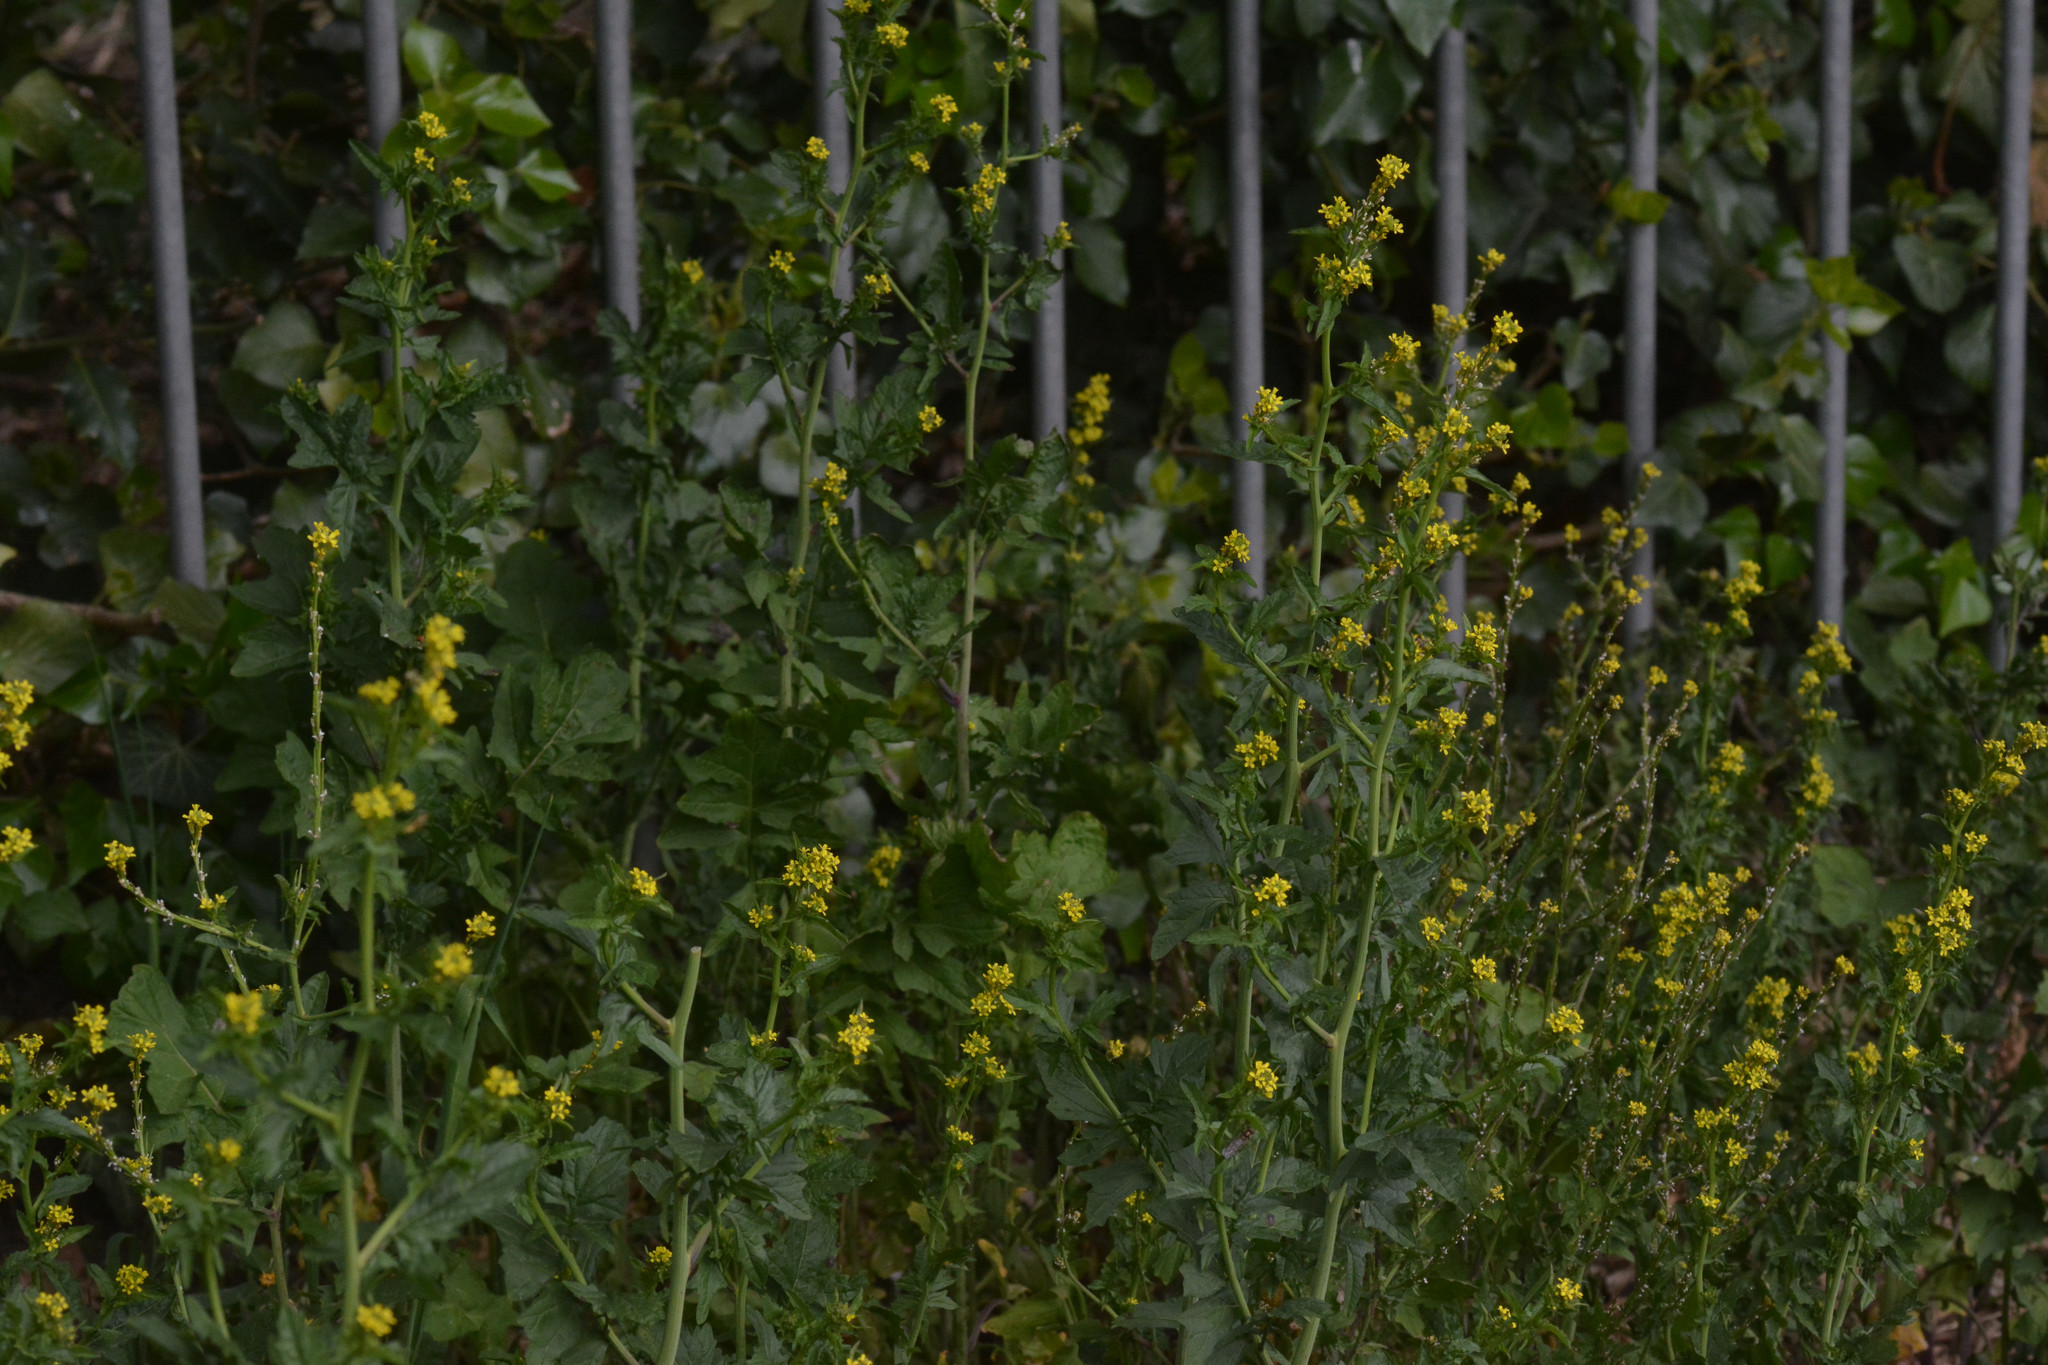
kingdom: Plantae
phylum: Tracheophyta
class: Magnoliopsida
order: Brassicales
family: Brassicaceae
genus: Sisymbrium
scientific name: Sisymbrium officinale
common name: Hedge mustard
